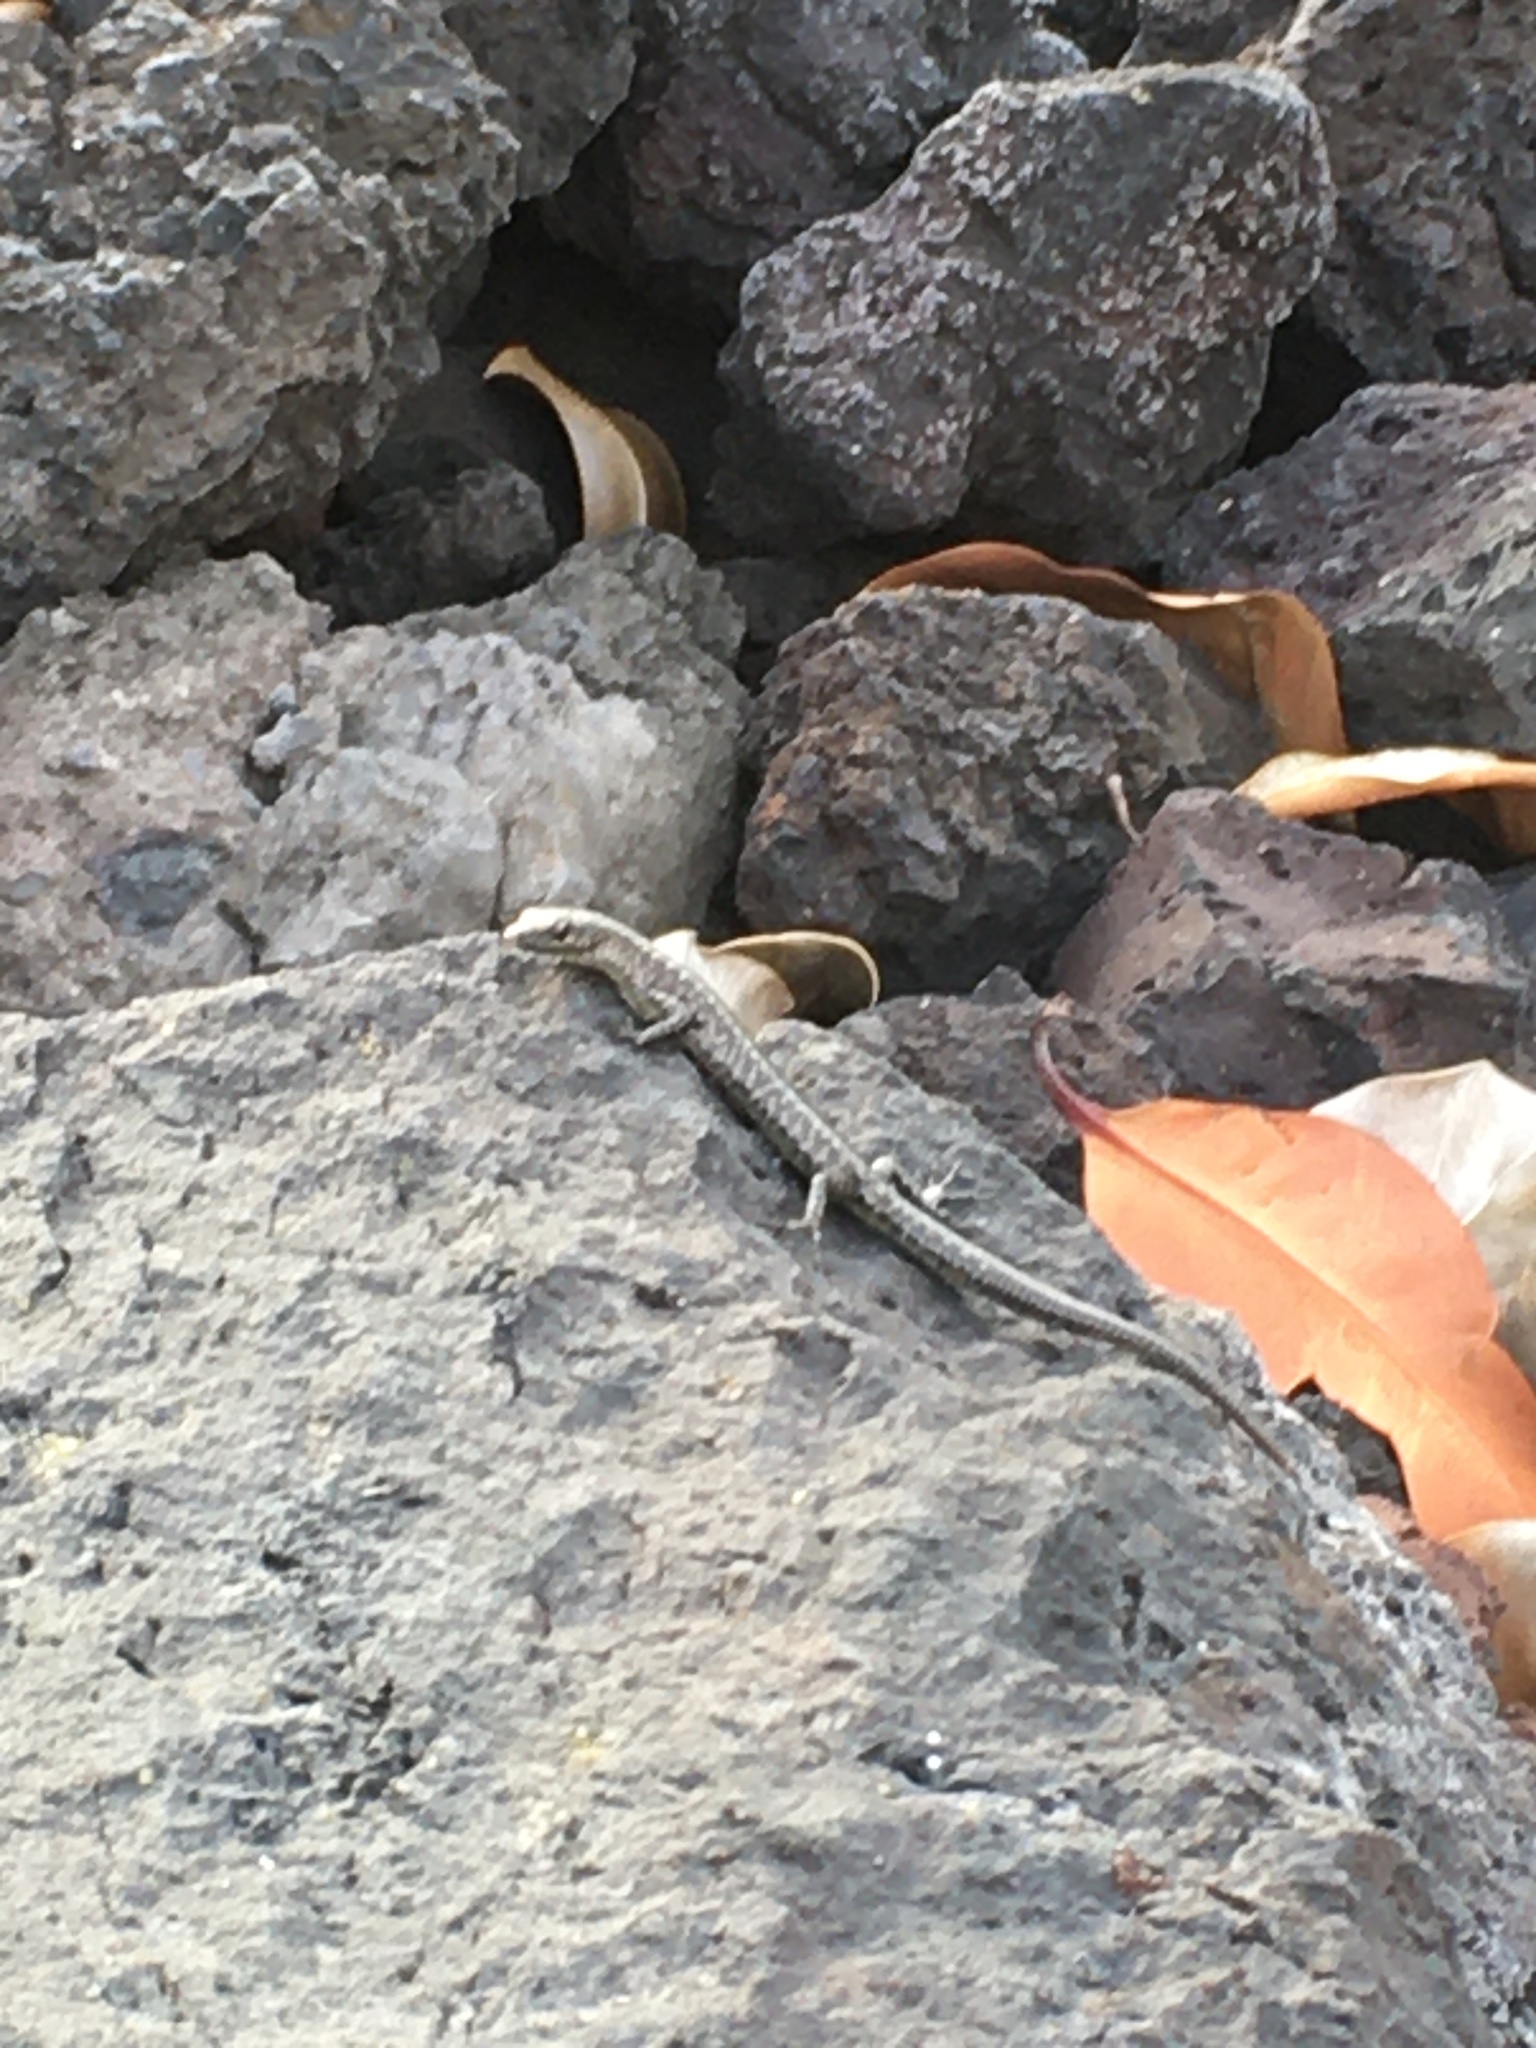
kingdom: Animalia
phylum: Chordata
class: Squamata
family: Scincidae
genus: Cryptoblepharus
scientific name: Cryptoblepharus poecilopleurus
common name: Mottled snake-eyed skink
